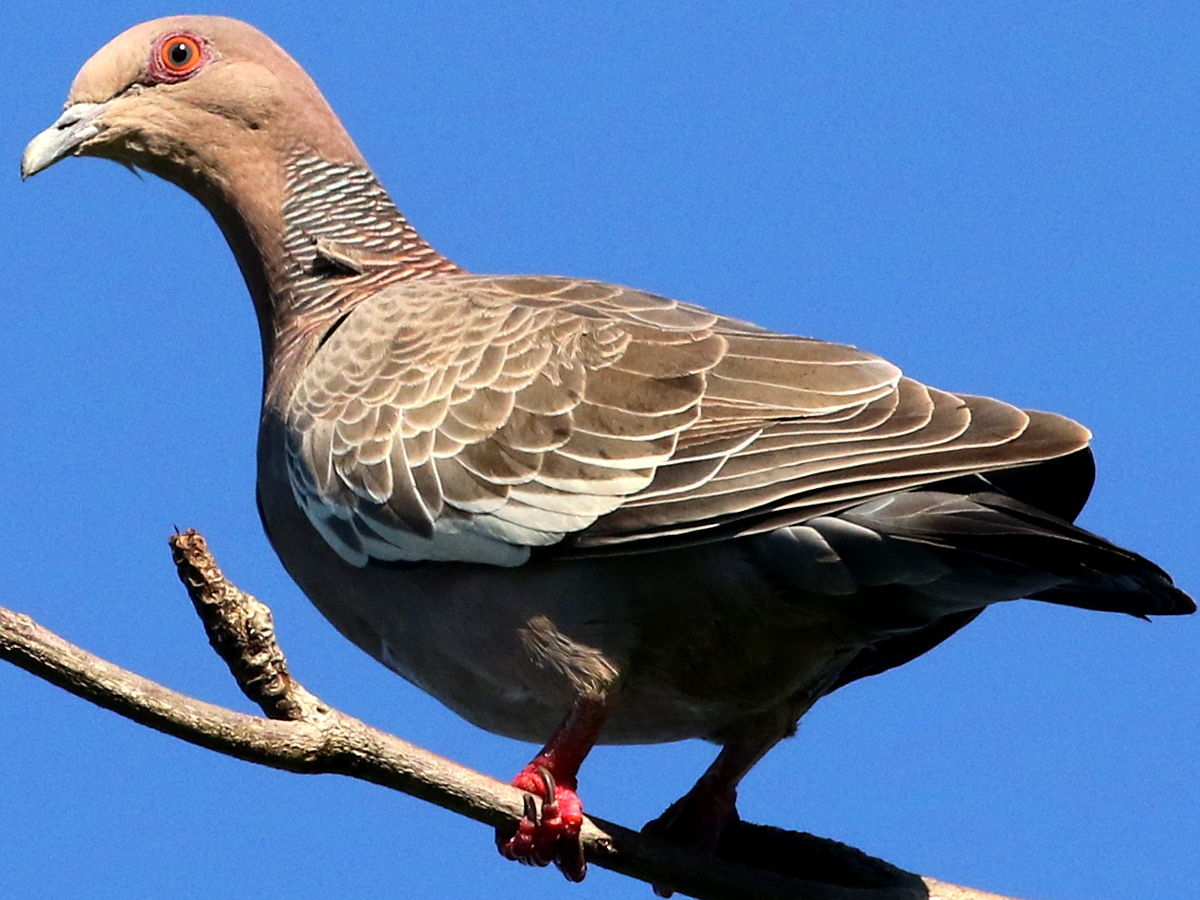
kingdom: Animalia
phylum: Chordata
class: Aves
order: Columbiformes
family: Columbidae
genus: Patagioenas
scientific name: Patagioenas picazuro
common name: Picazuro pigeon
